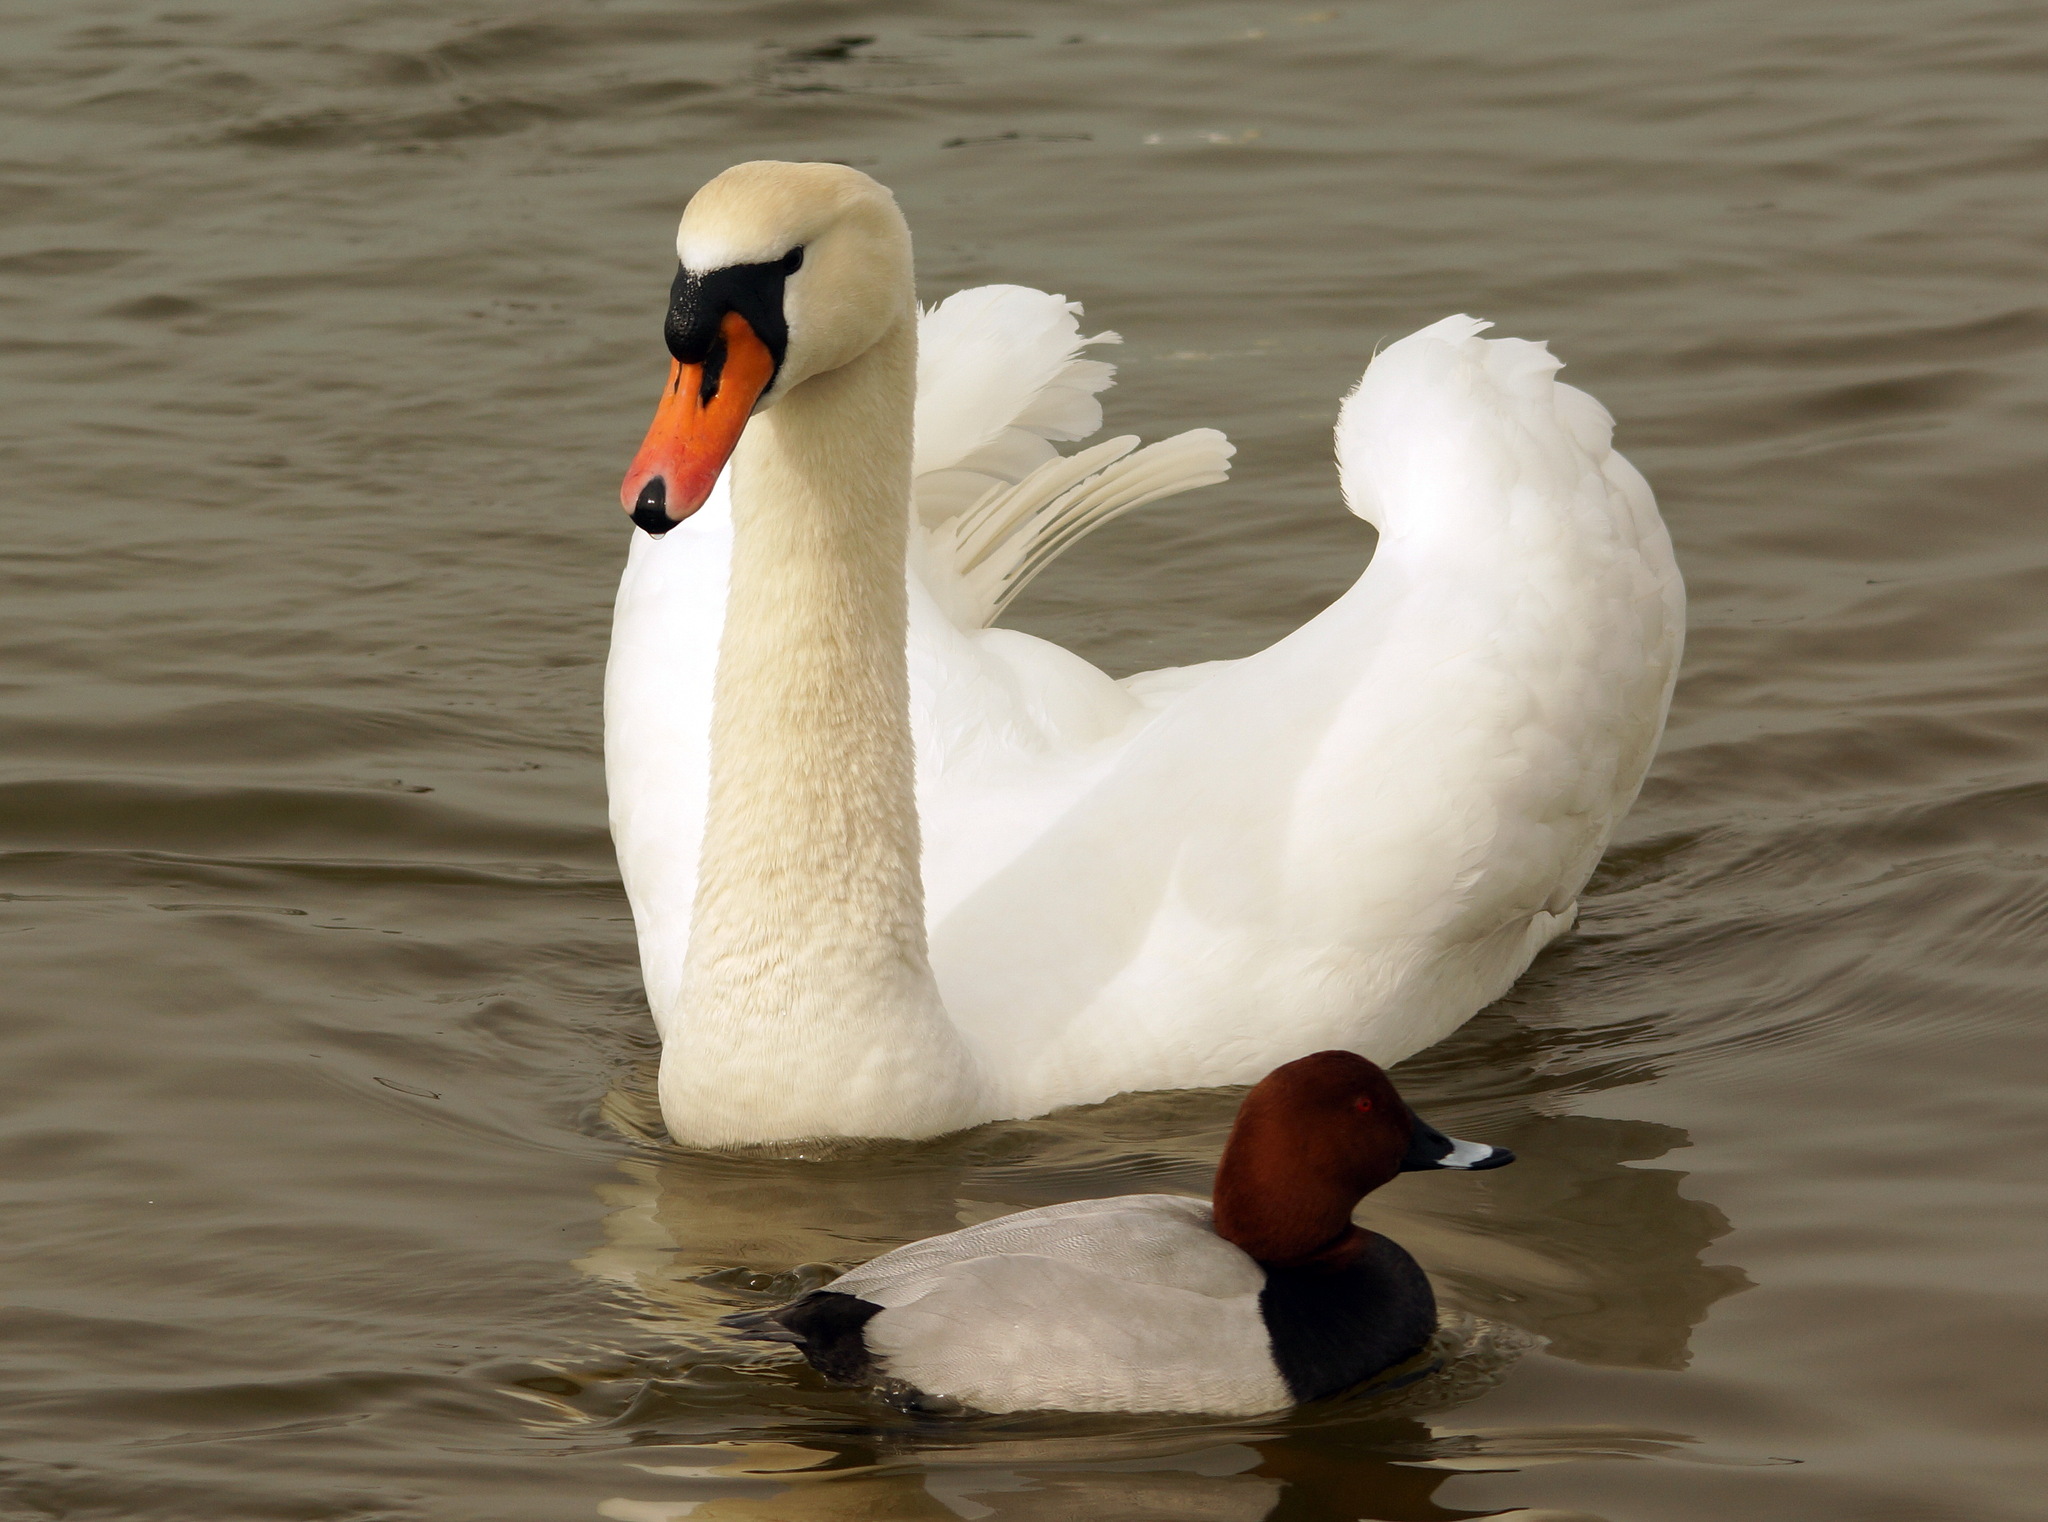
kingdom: Animalia
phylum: Chordata
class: Aves
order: Anseriformes
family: Anatidae
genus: Aythya
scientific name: Aythya ferina
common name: Common pochard
